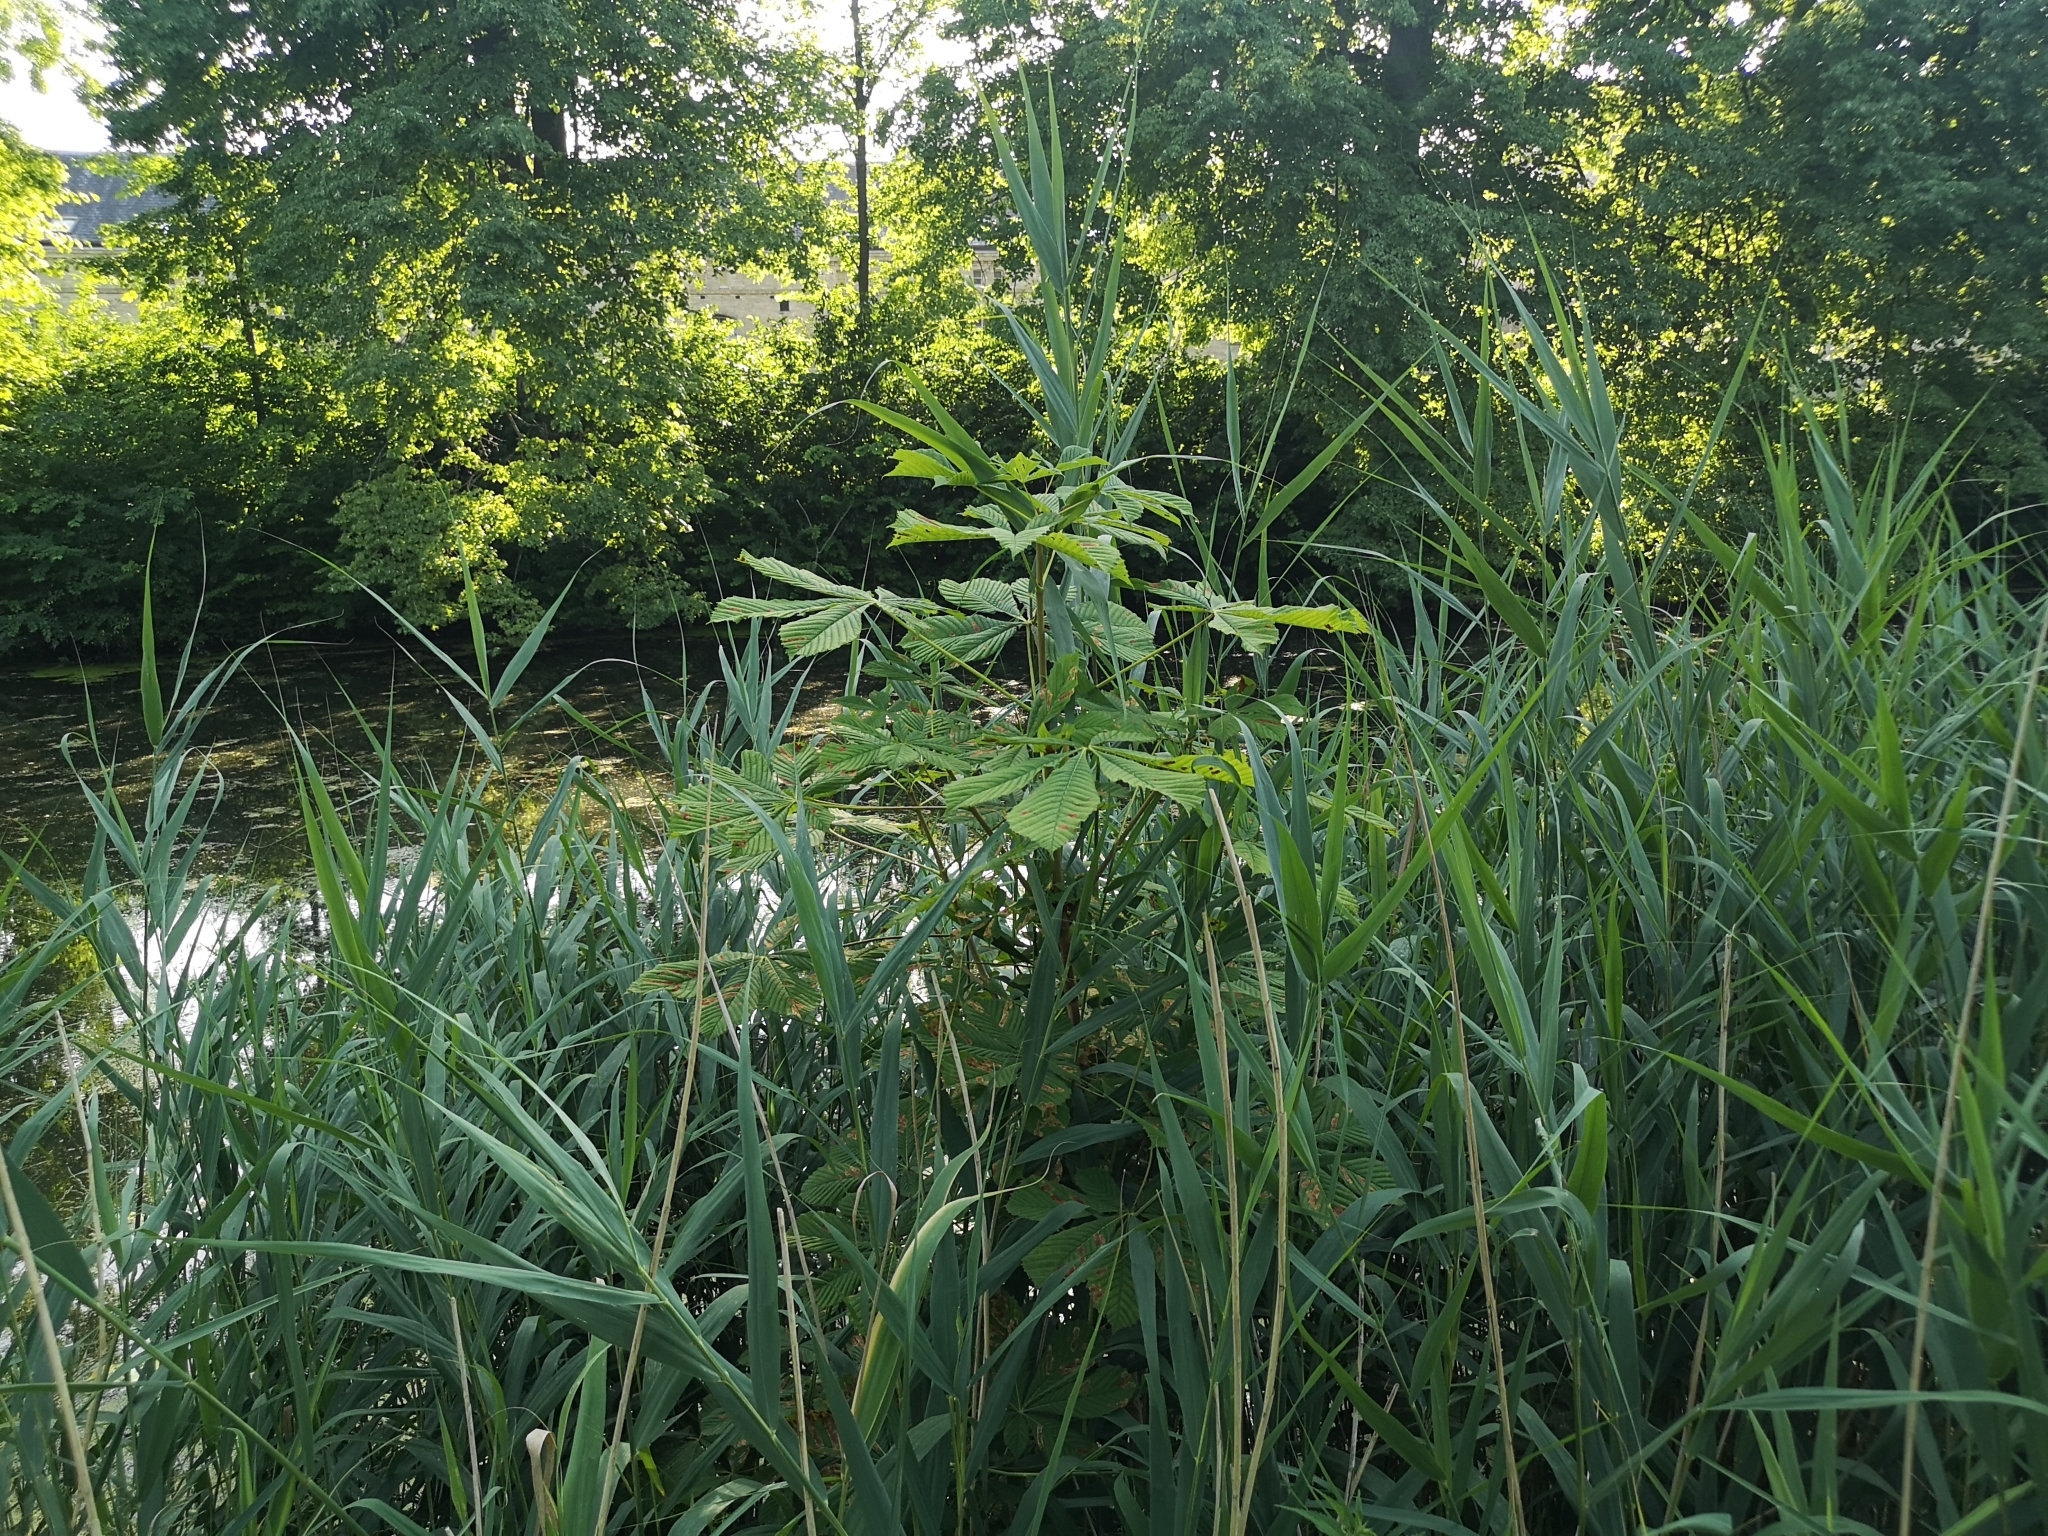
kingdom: Plantae
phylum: Tracheophyta
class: Magnoliopsida
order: Sapindales
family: Sapindaceae
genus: Aesculus
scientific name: Aesculus hippocastanum
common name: Horse-chestnut
